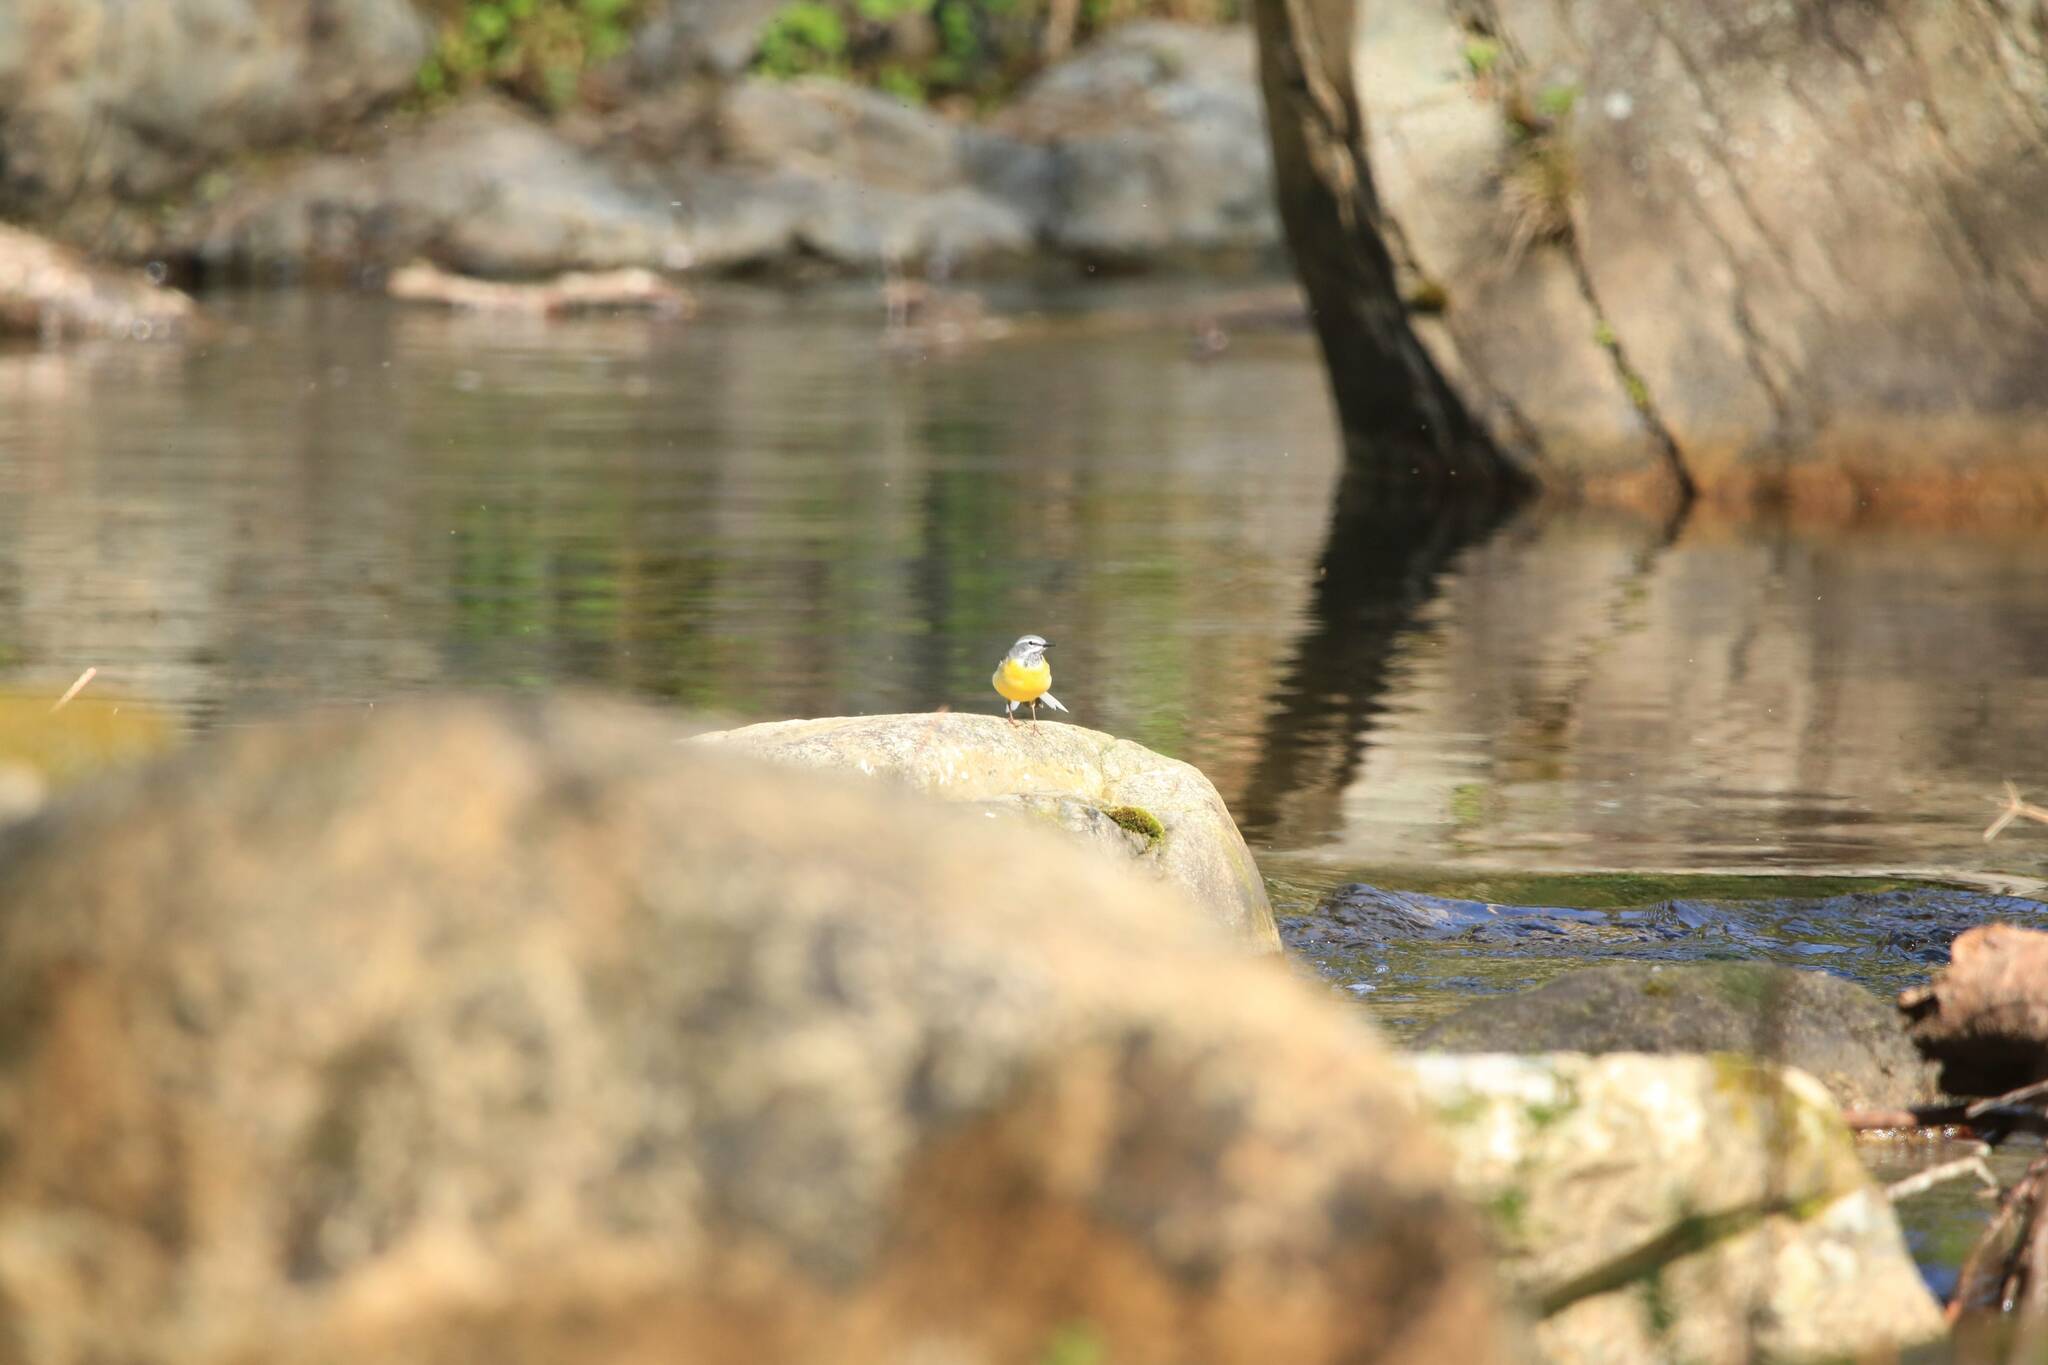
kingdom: Animalia
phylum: Chordata
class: Aves
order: Passeriformes
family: Motacillidae
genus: Motacilla
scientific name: Motacilla cinerea
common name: Grey wagtail
